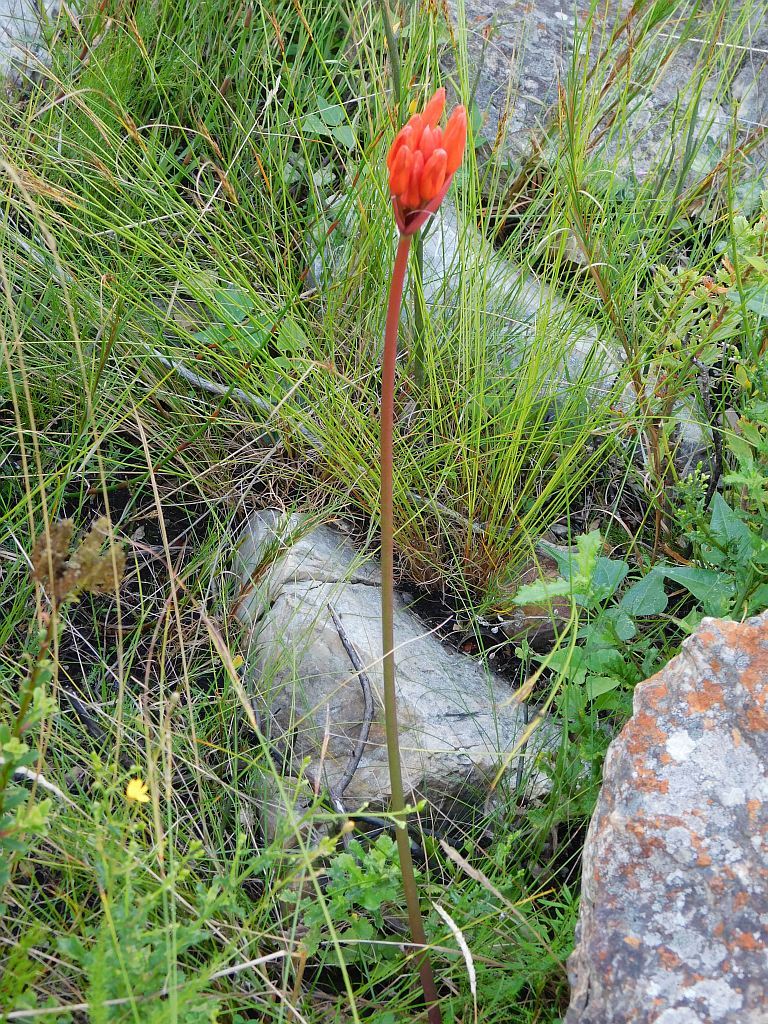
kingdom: Plantae
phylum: Tracheophyta
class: Liliopsida
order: Asparagales
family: Amaryllidaceae
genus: Nerine
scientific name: Nerine sarniensis
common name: Guernsey-lily
